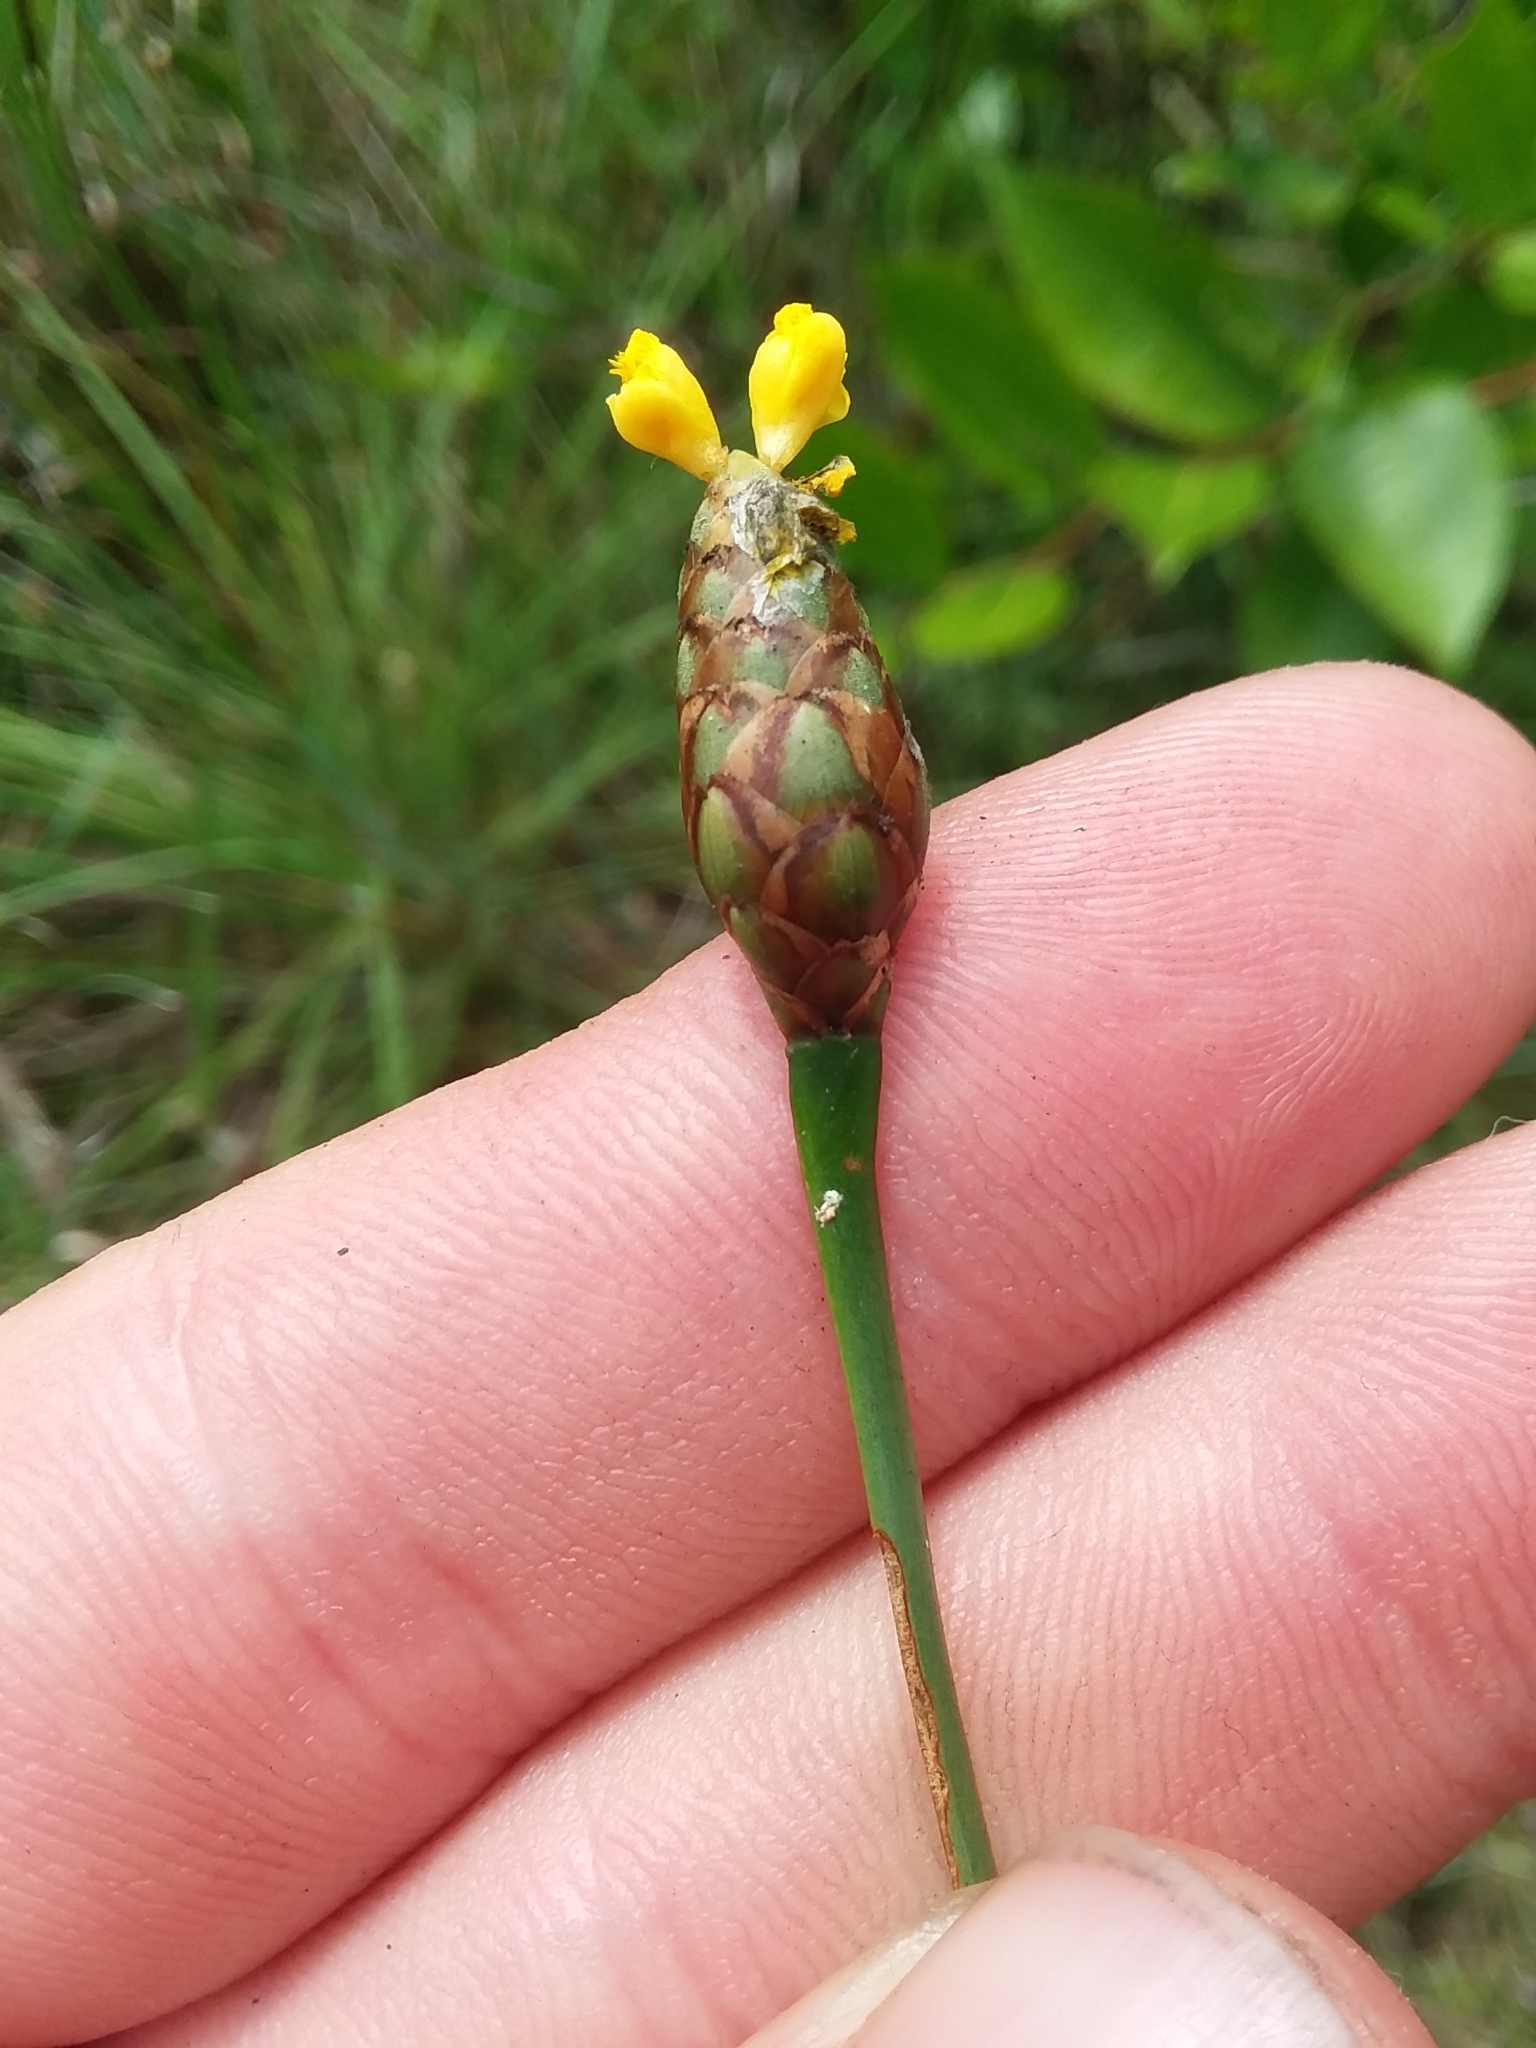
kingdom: Plantae
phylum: Tracheophyta
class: Liliopsida
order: Poales
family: Xyridaceae
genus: Xyris
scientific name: Xyris ambigua
